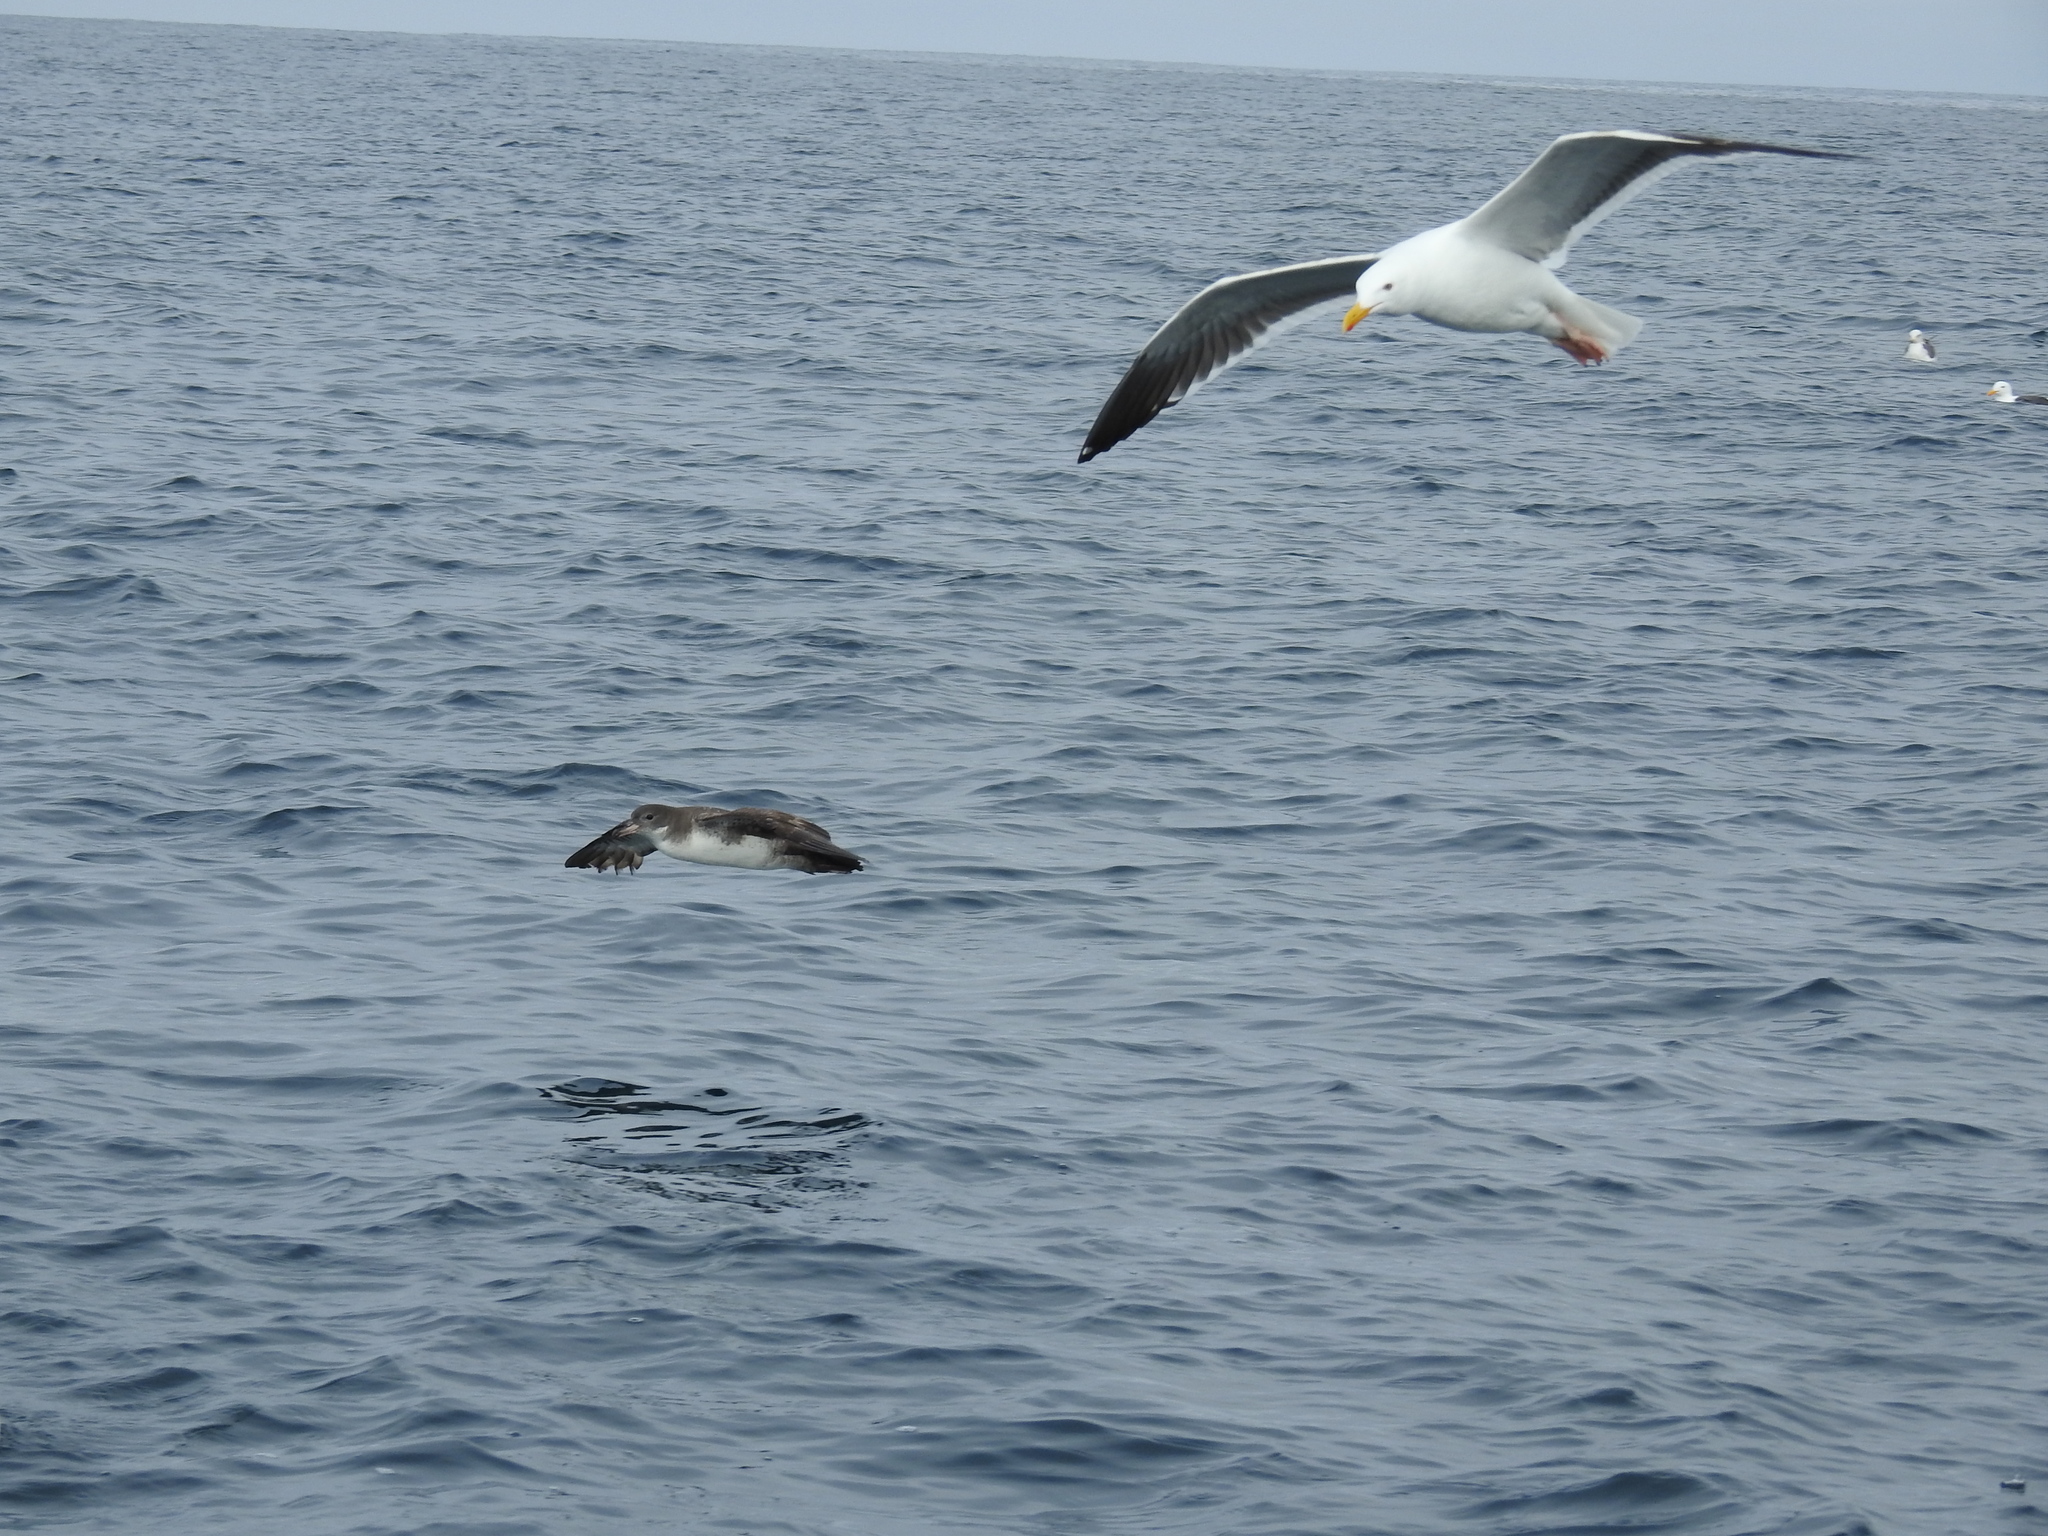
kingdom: Animalia
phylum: Chordata
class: Aves
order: Procellariiformes
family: Procellariidae
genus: Puffinus
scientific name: Puffinus creatopus
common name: Pink-footed shearwater
